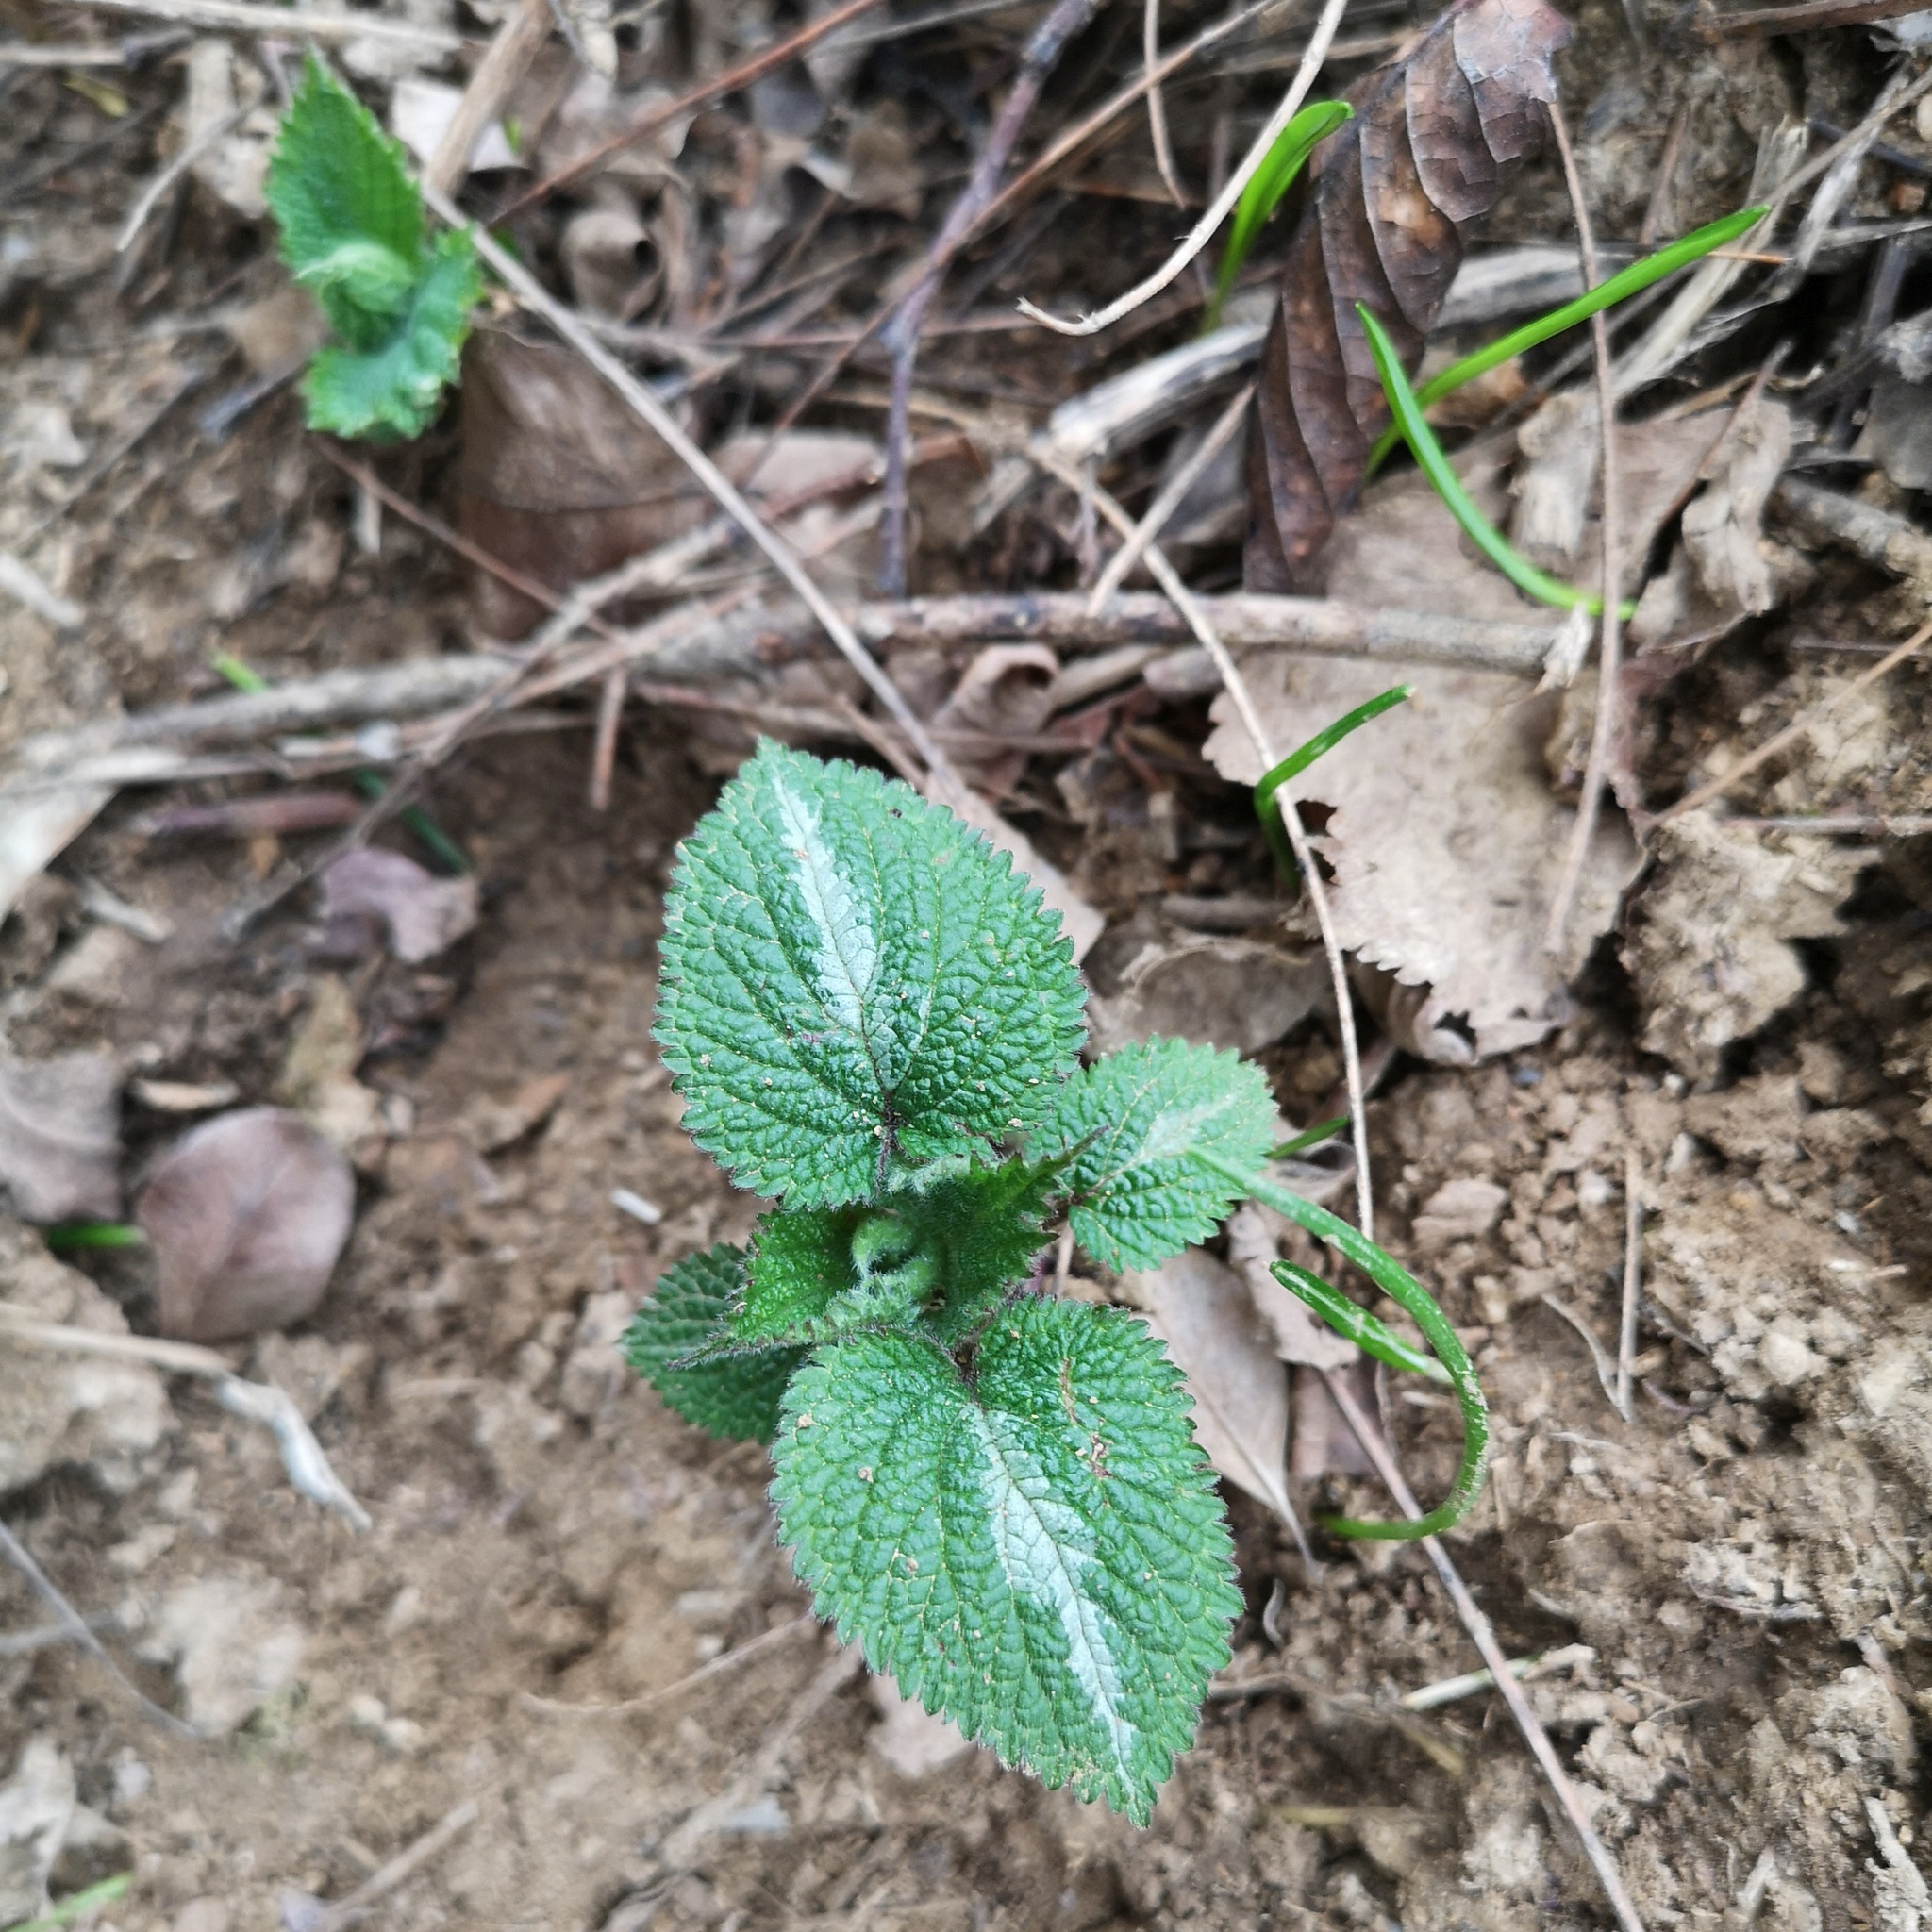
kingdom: Plantae
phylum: Tracheophyta
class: Magnoliopsida
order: Lamiales
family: Lamiaceae
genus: Lamium
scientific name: Lamium orvala
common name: Balm-leaved archangel
